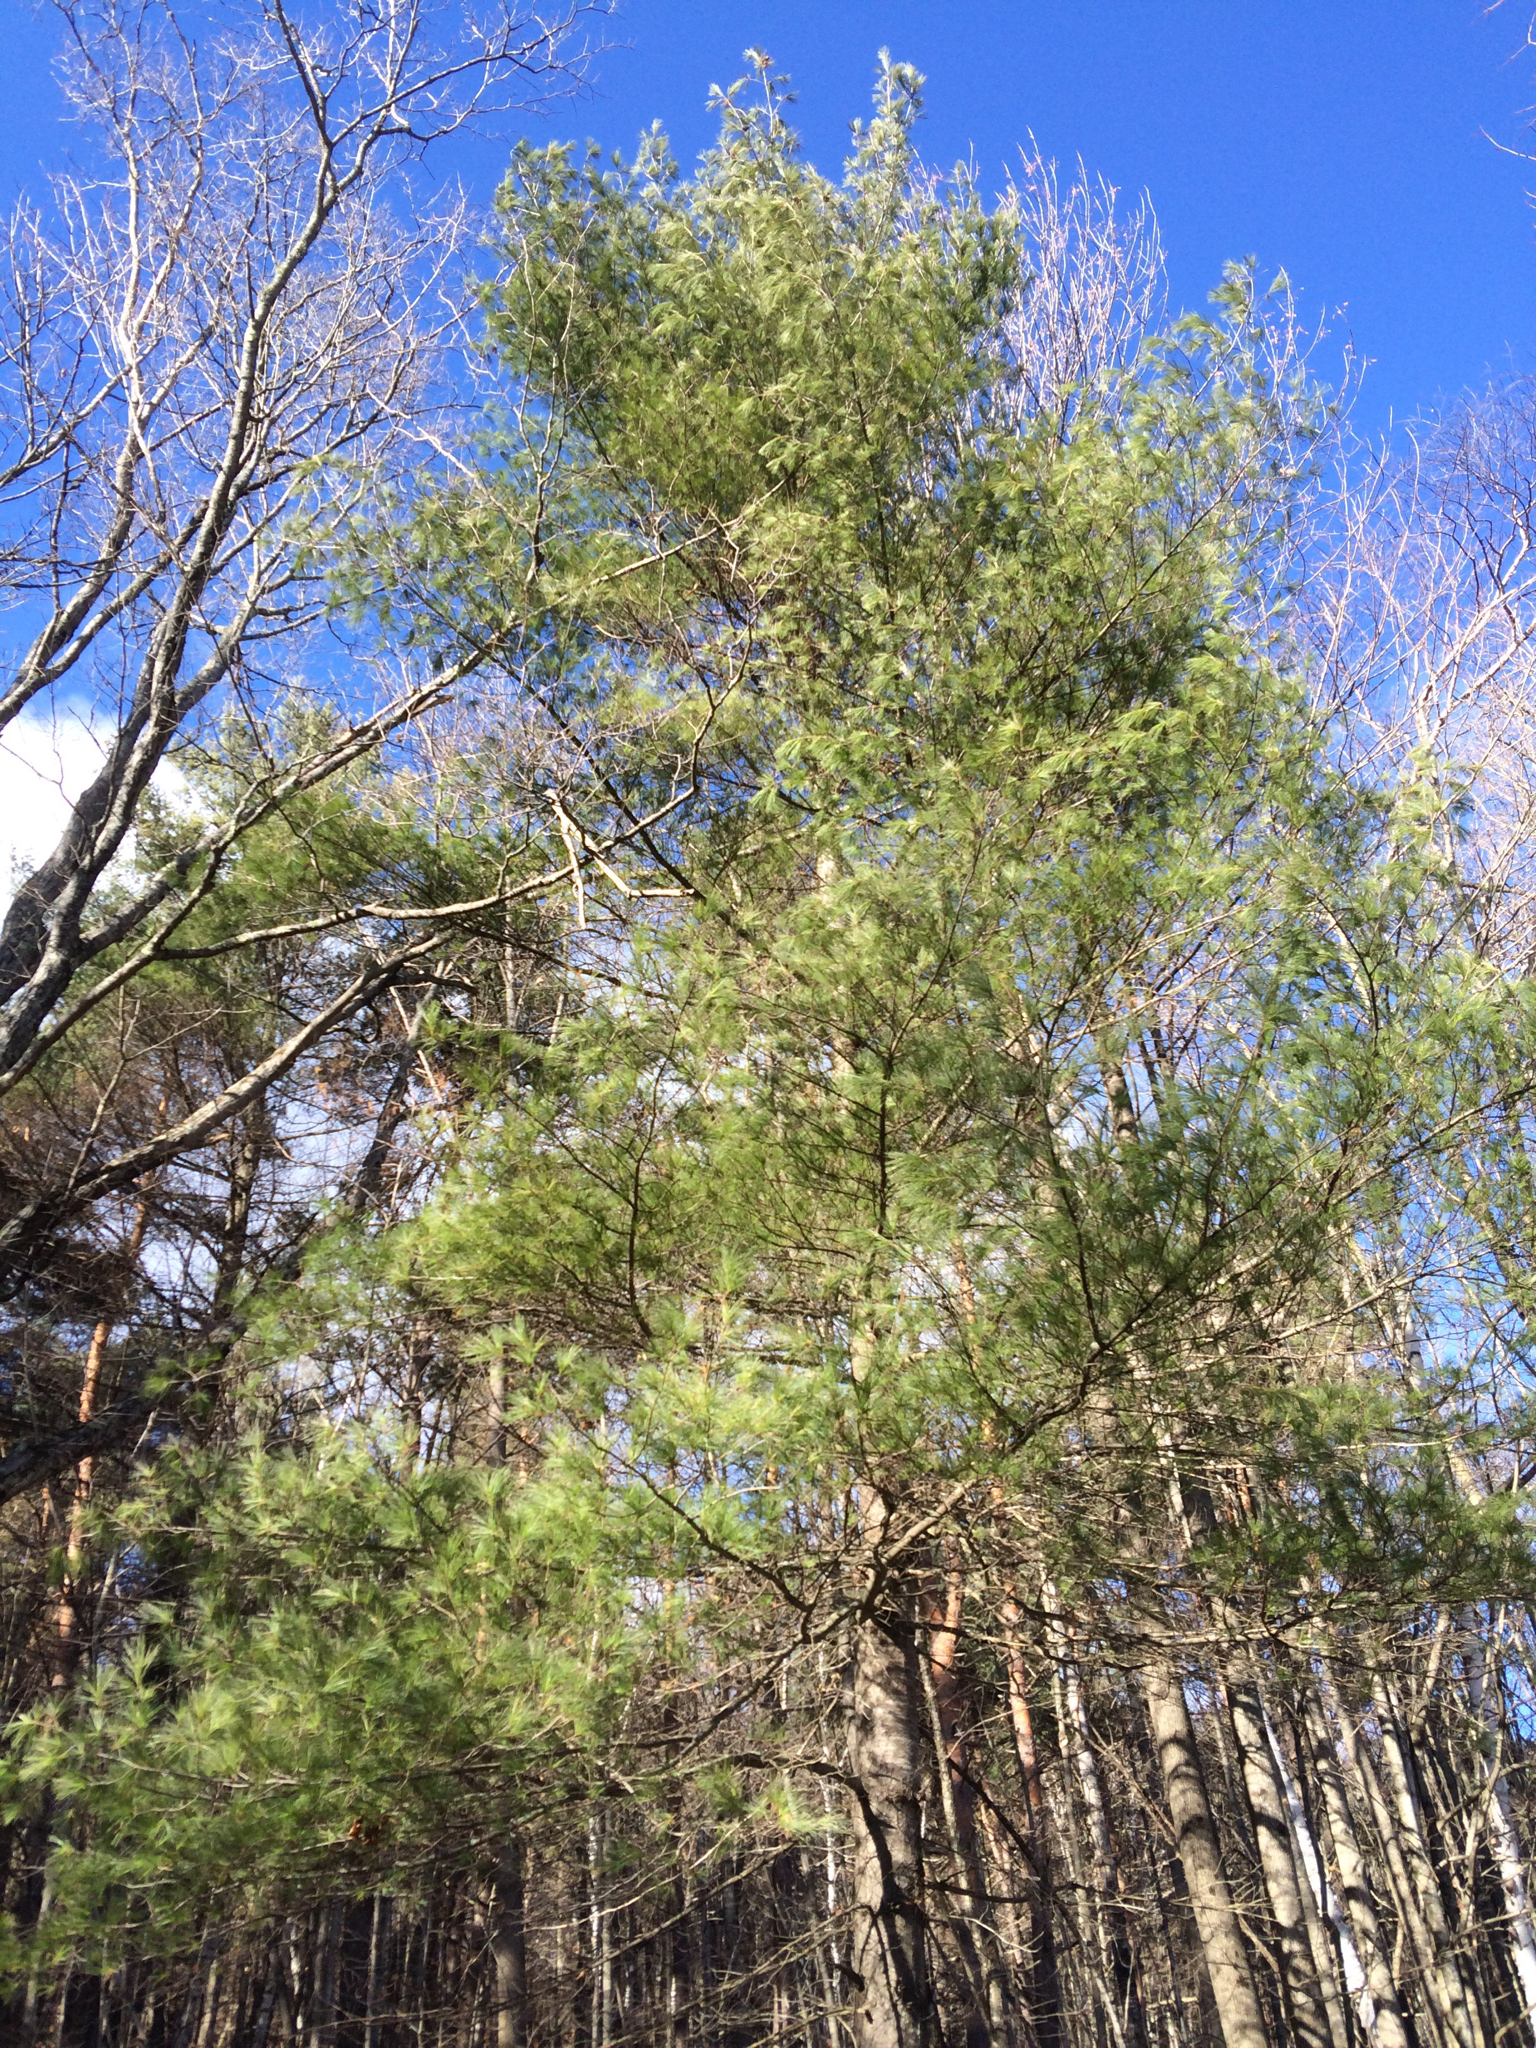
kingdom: Plantae
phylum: Tracheophyta
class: Pinopsida
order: Pinales
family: Pinaceae
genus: Pinus
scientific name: Pinus strobus
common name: Weymouth pine
